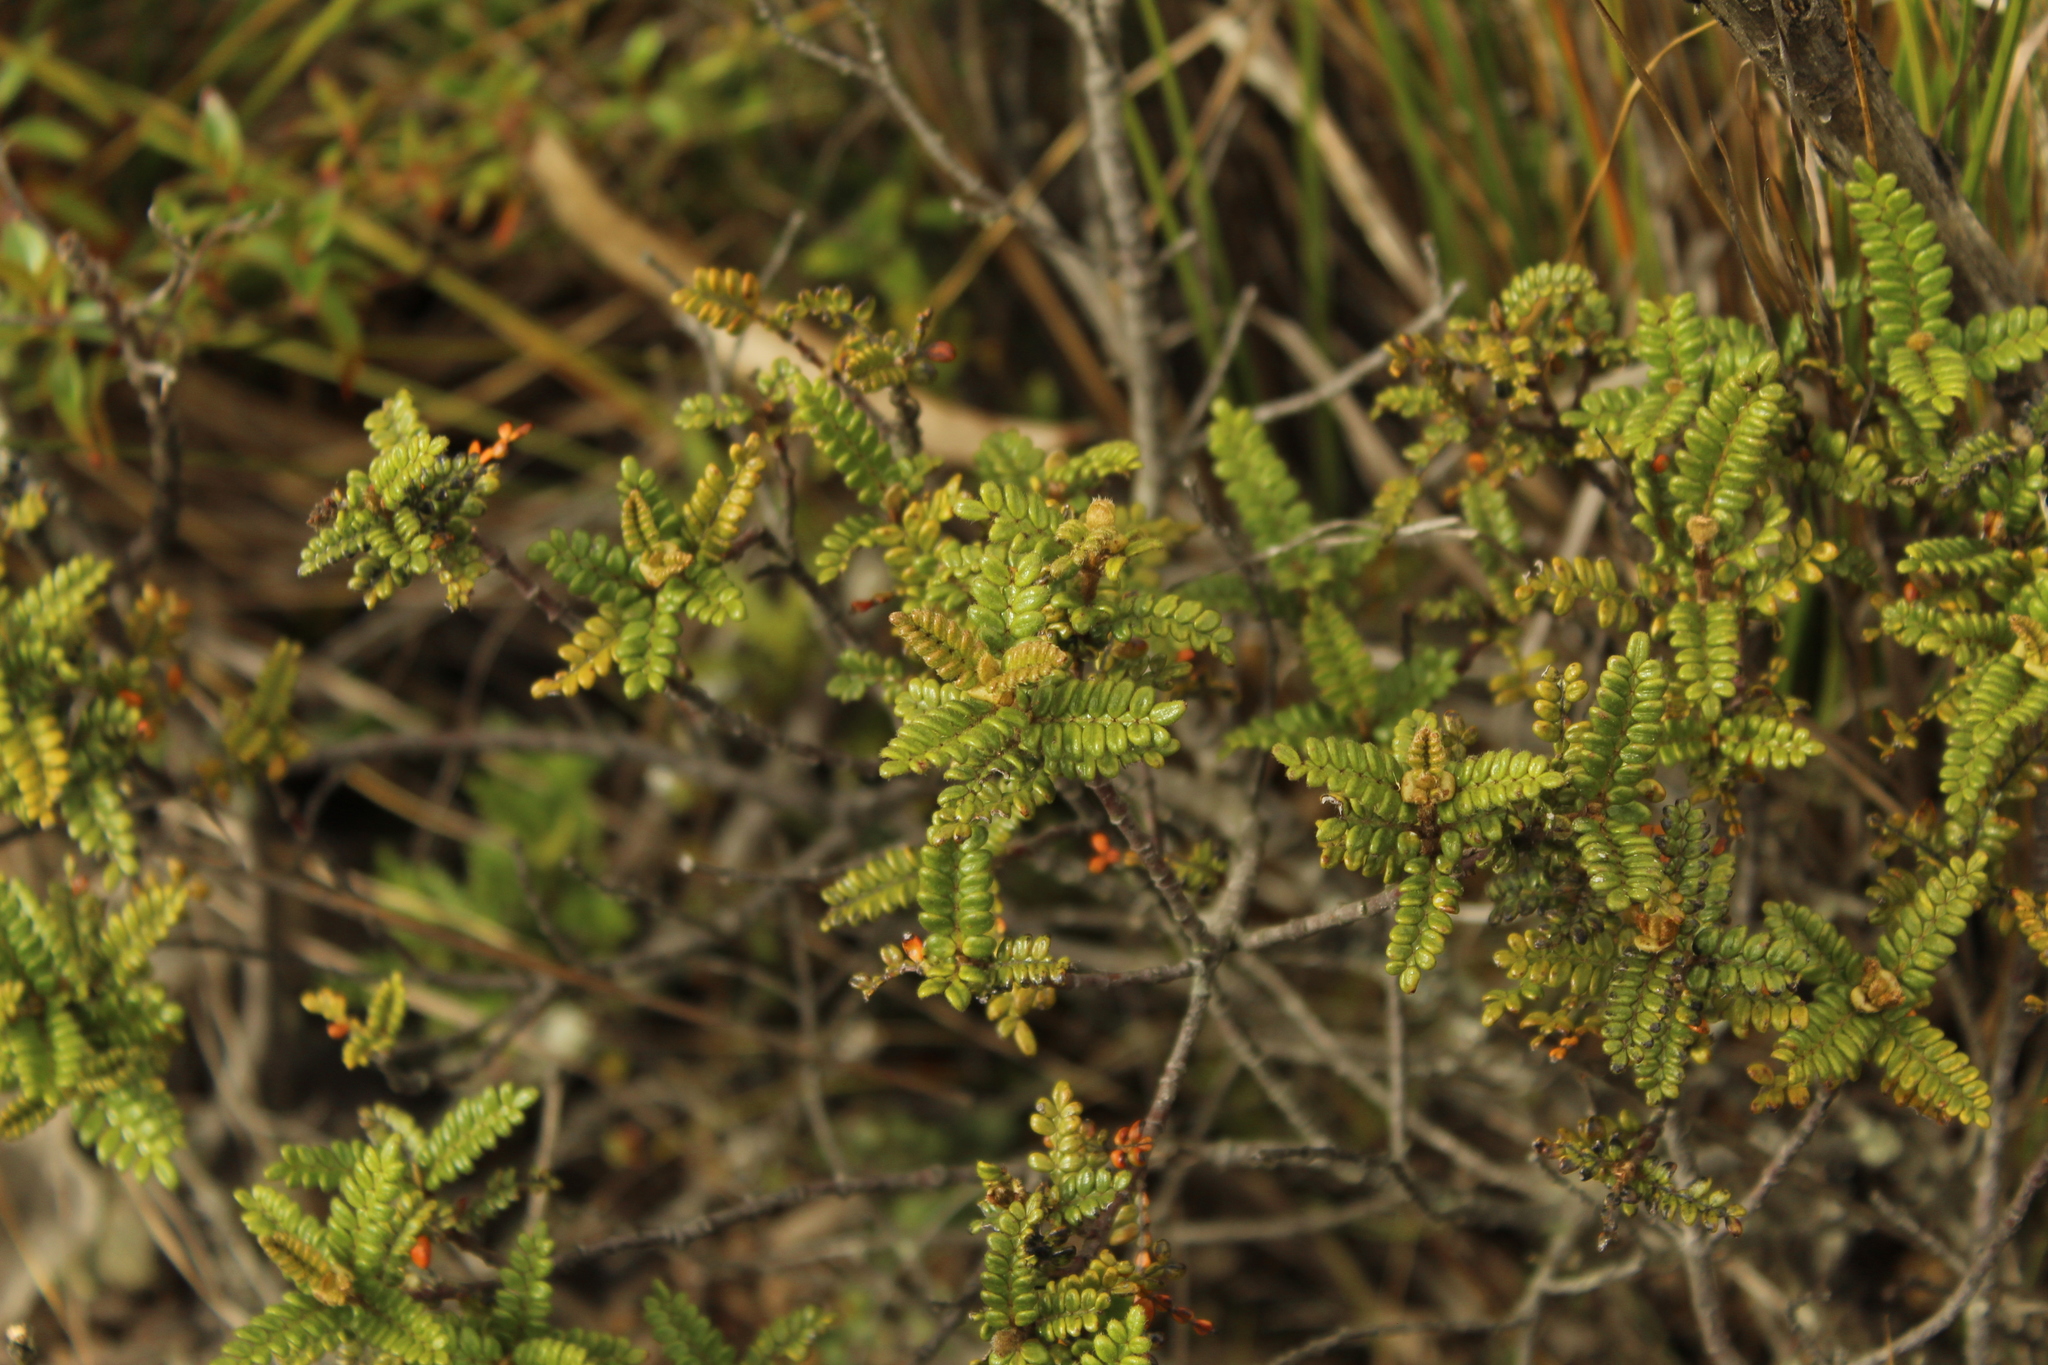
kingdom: Plantae
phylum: Tracheophyta
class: Magnoliopsida
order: Oxalidales
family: Cunoniaceae
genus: Weinmannia
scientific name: Weinmannia tomentosa
